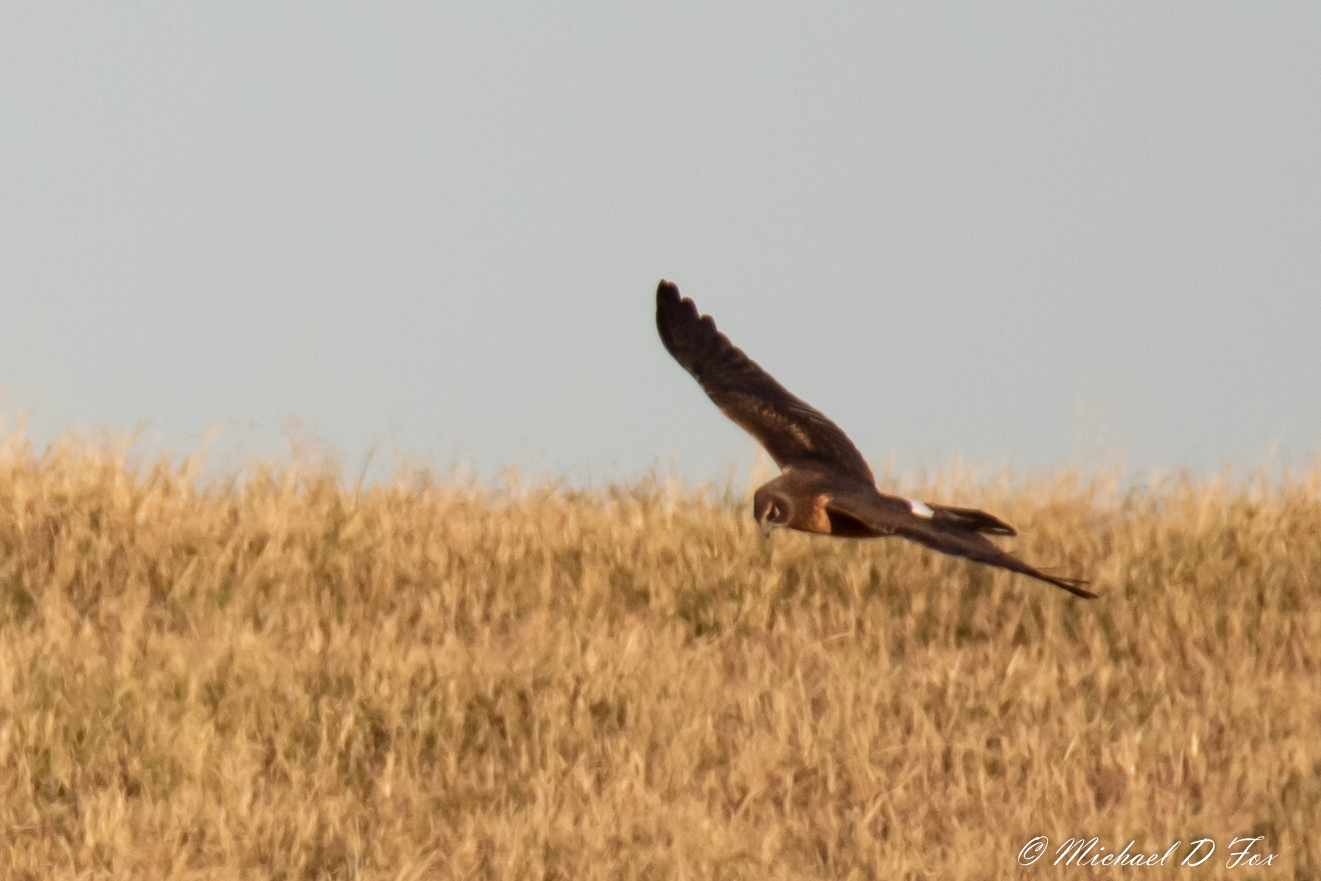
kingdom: Animalia
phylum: Chordata
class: Aves
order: Accipitriformes
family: Accipitridae
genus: Circus
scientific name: Circus cyaneus
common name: Hen harrier
